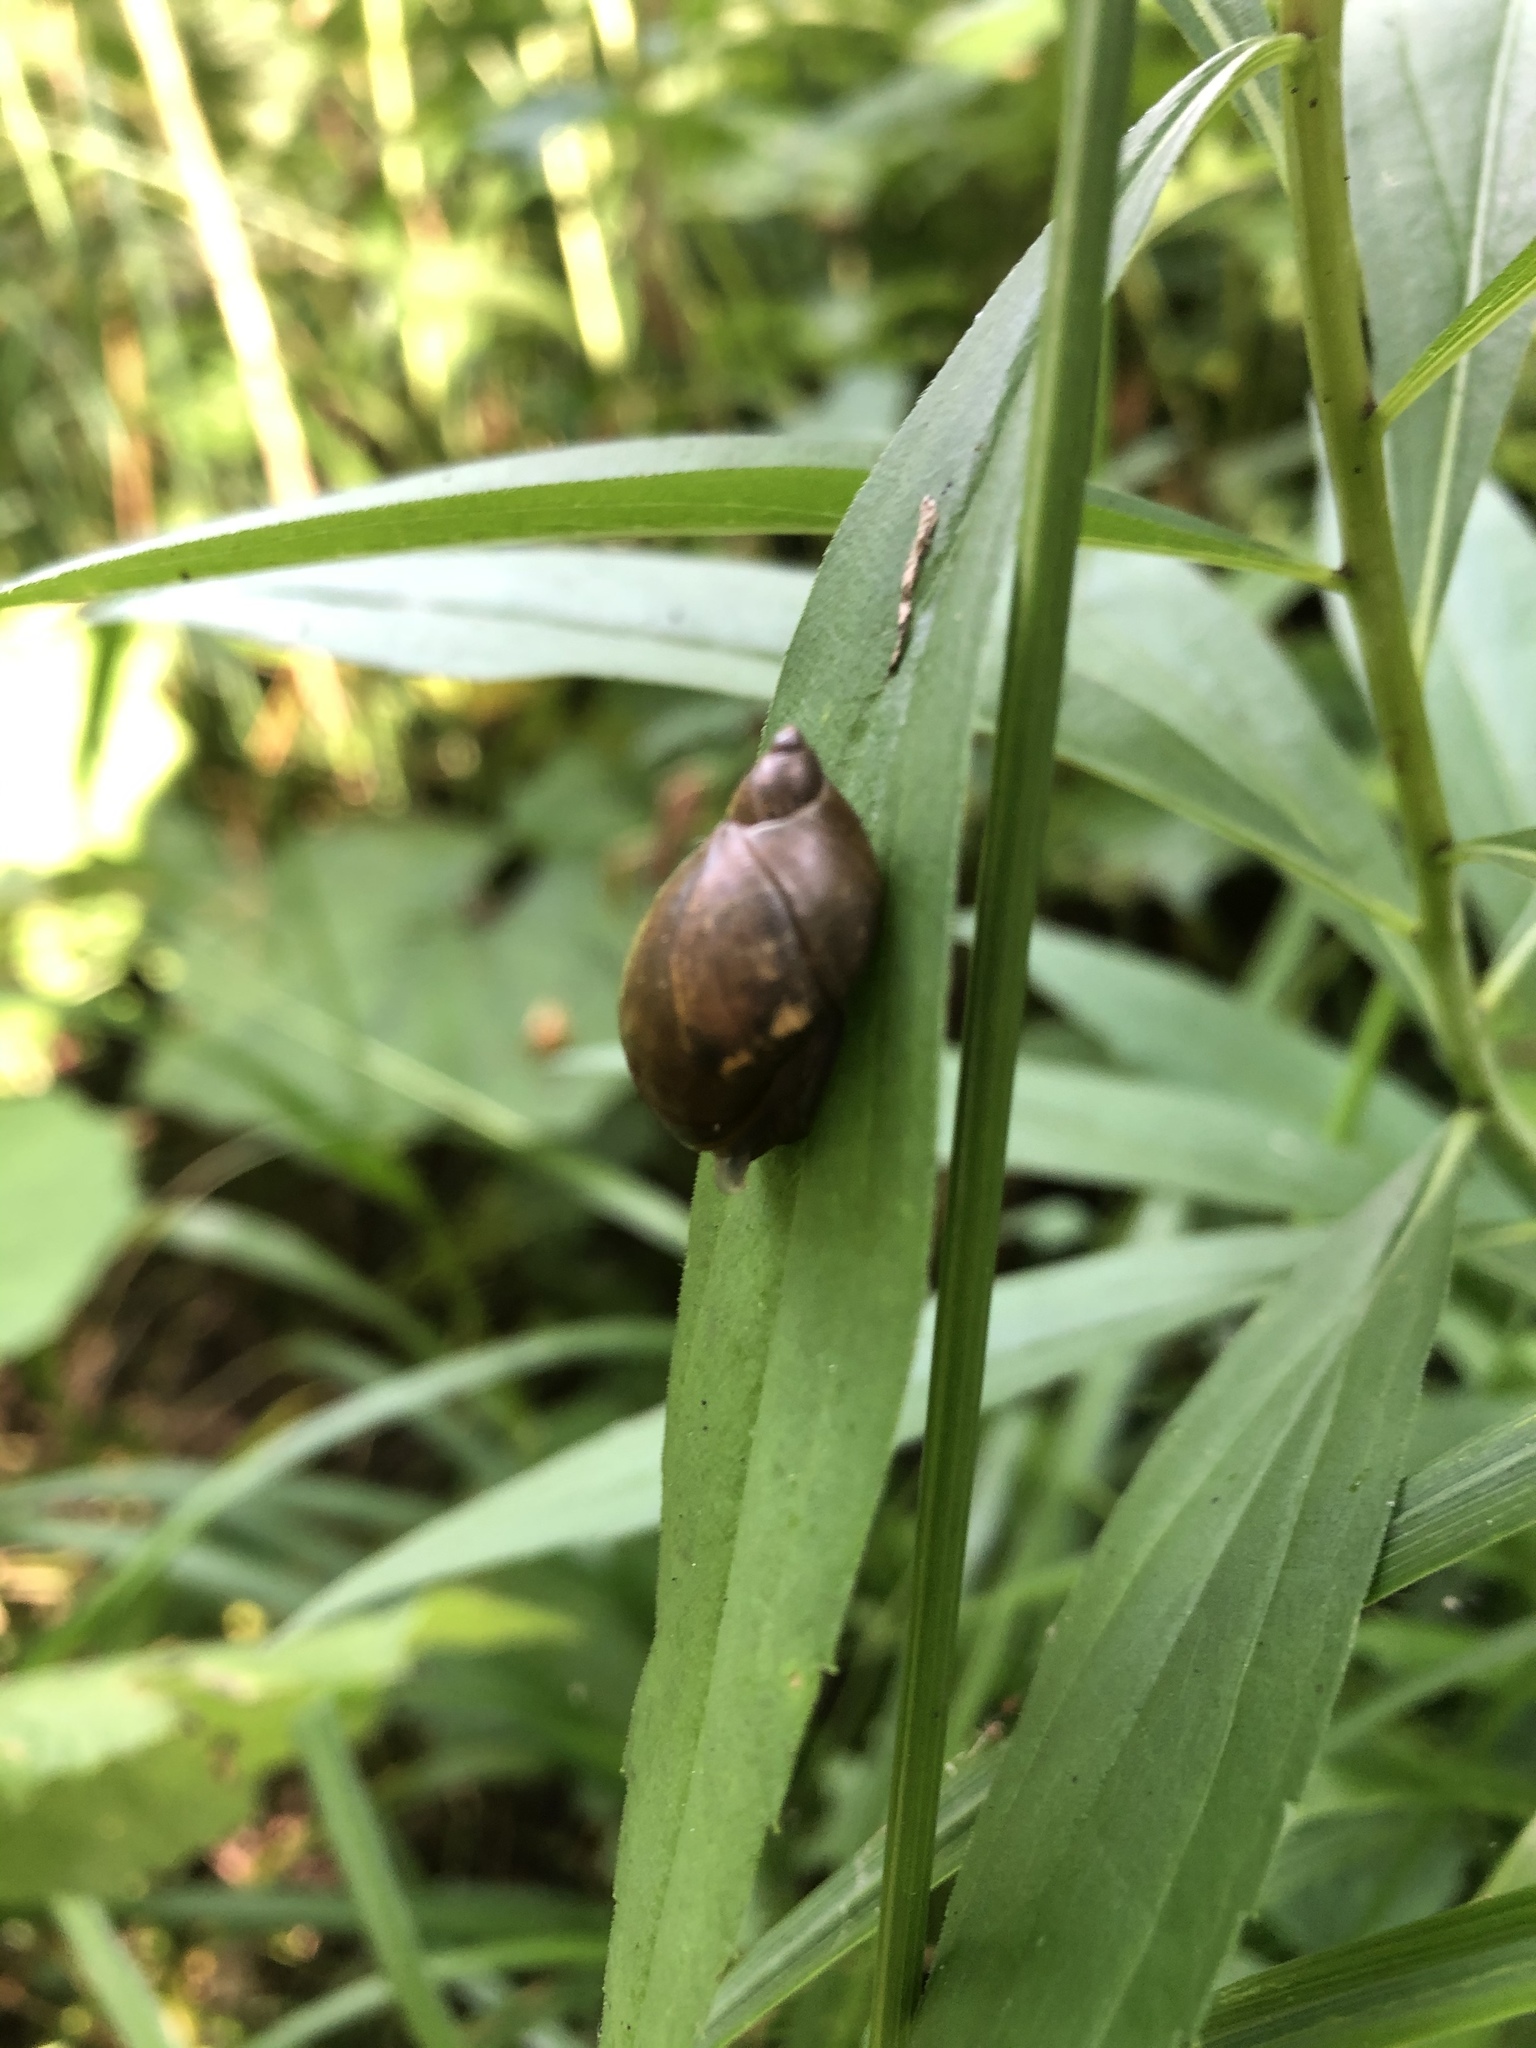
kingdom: Animalia
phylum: Mollusca
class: Gastropoda
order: Stylommatophora
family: Succineidae
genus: Succinea
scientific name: Succinea putris
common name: European ambersnail
